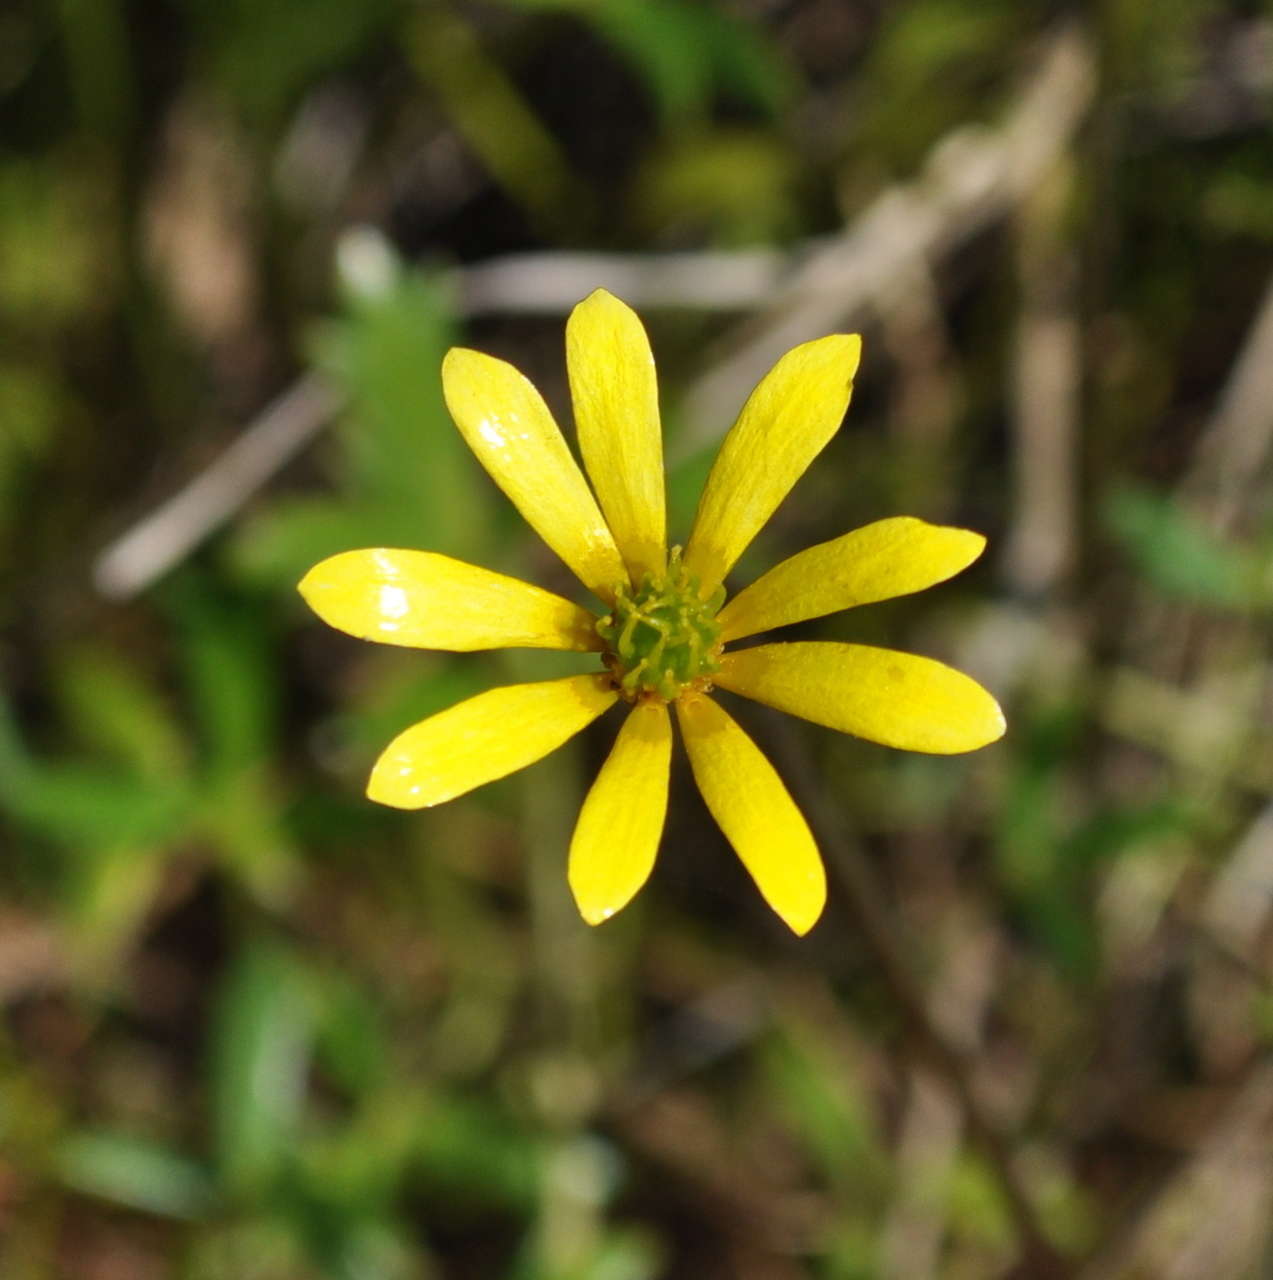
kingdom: Plantae
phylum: Tracheophyta
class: Magnoliopsida
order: Ranunculales
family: Ranunculaceae
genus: Ranunculus
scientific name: Ranunculus glabrifolius
